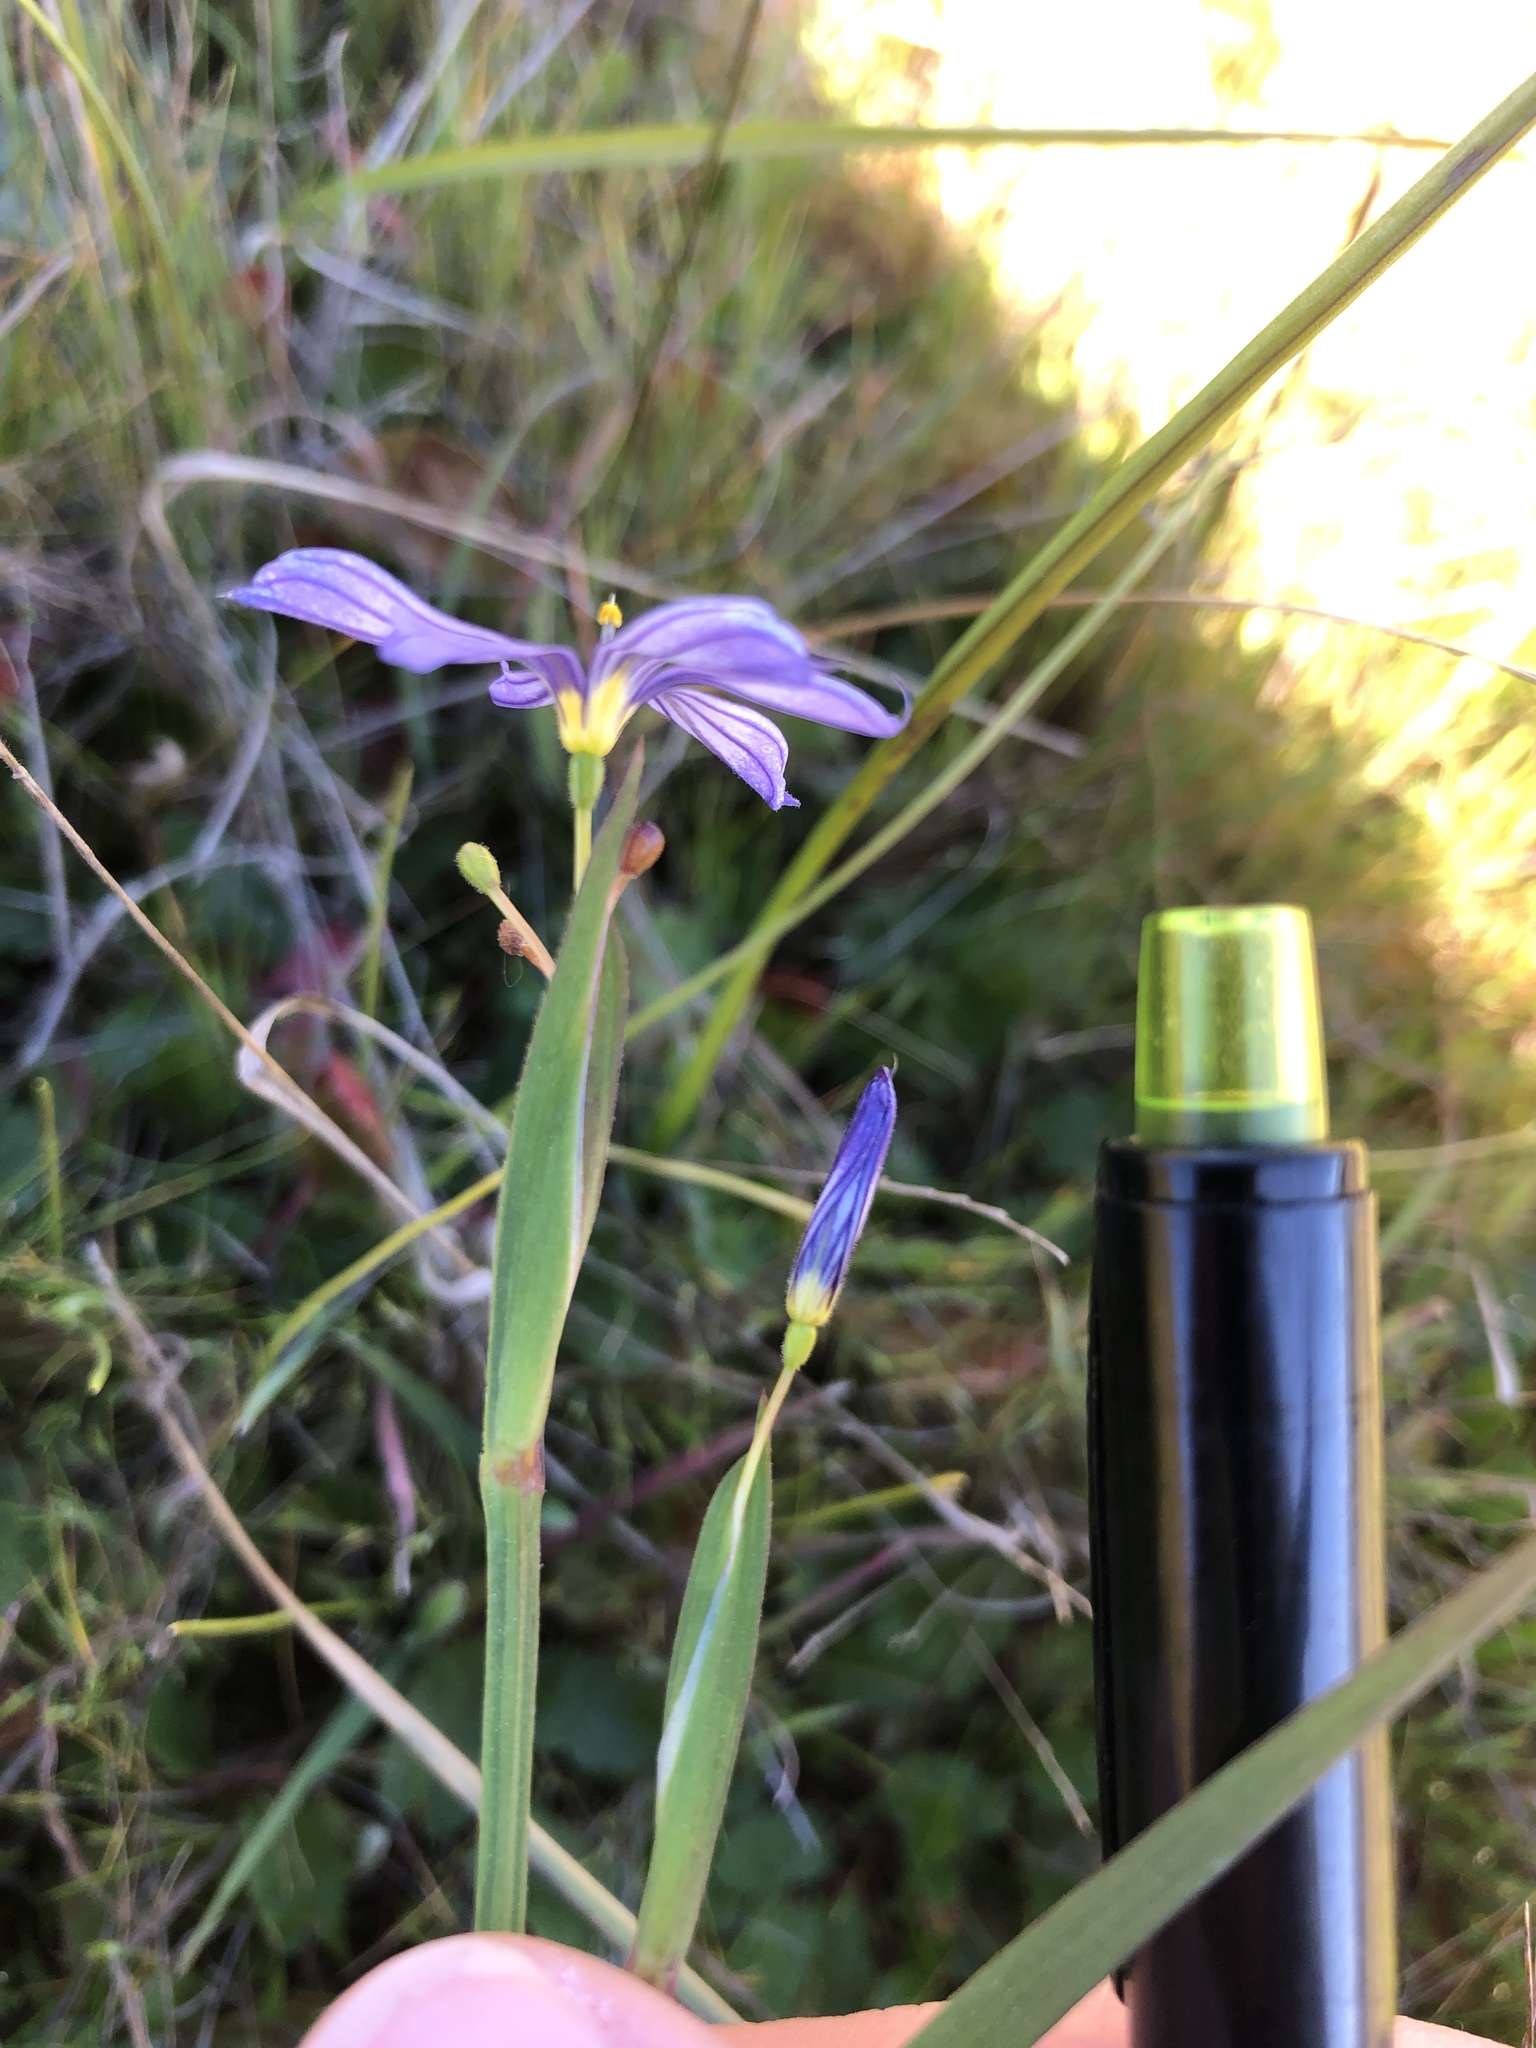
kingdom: Plantae
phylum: Tracheophyta
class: Liliopsida
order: Asparagales
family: Iridaceae
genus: Sisyrinchium
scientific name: Sisyrinchium bellum
